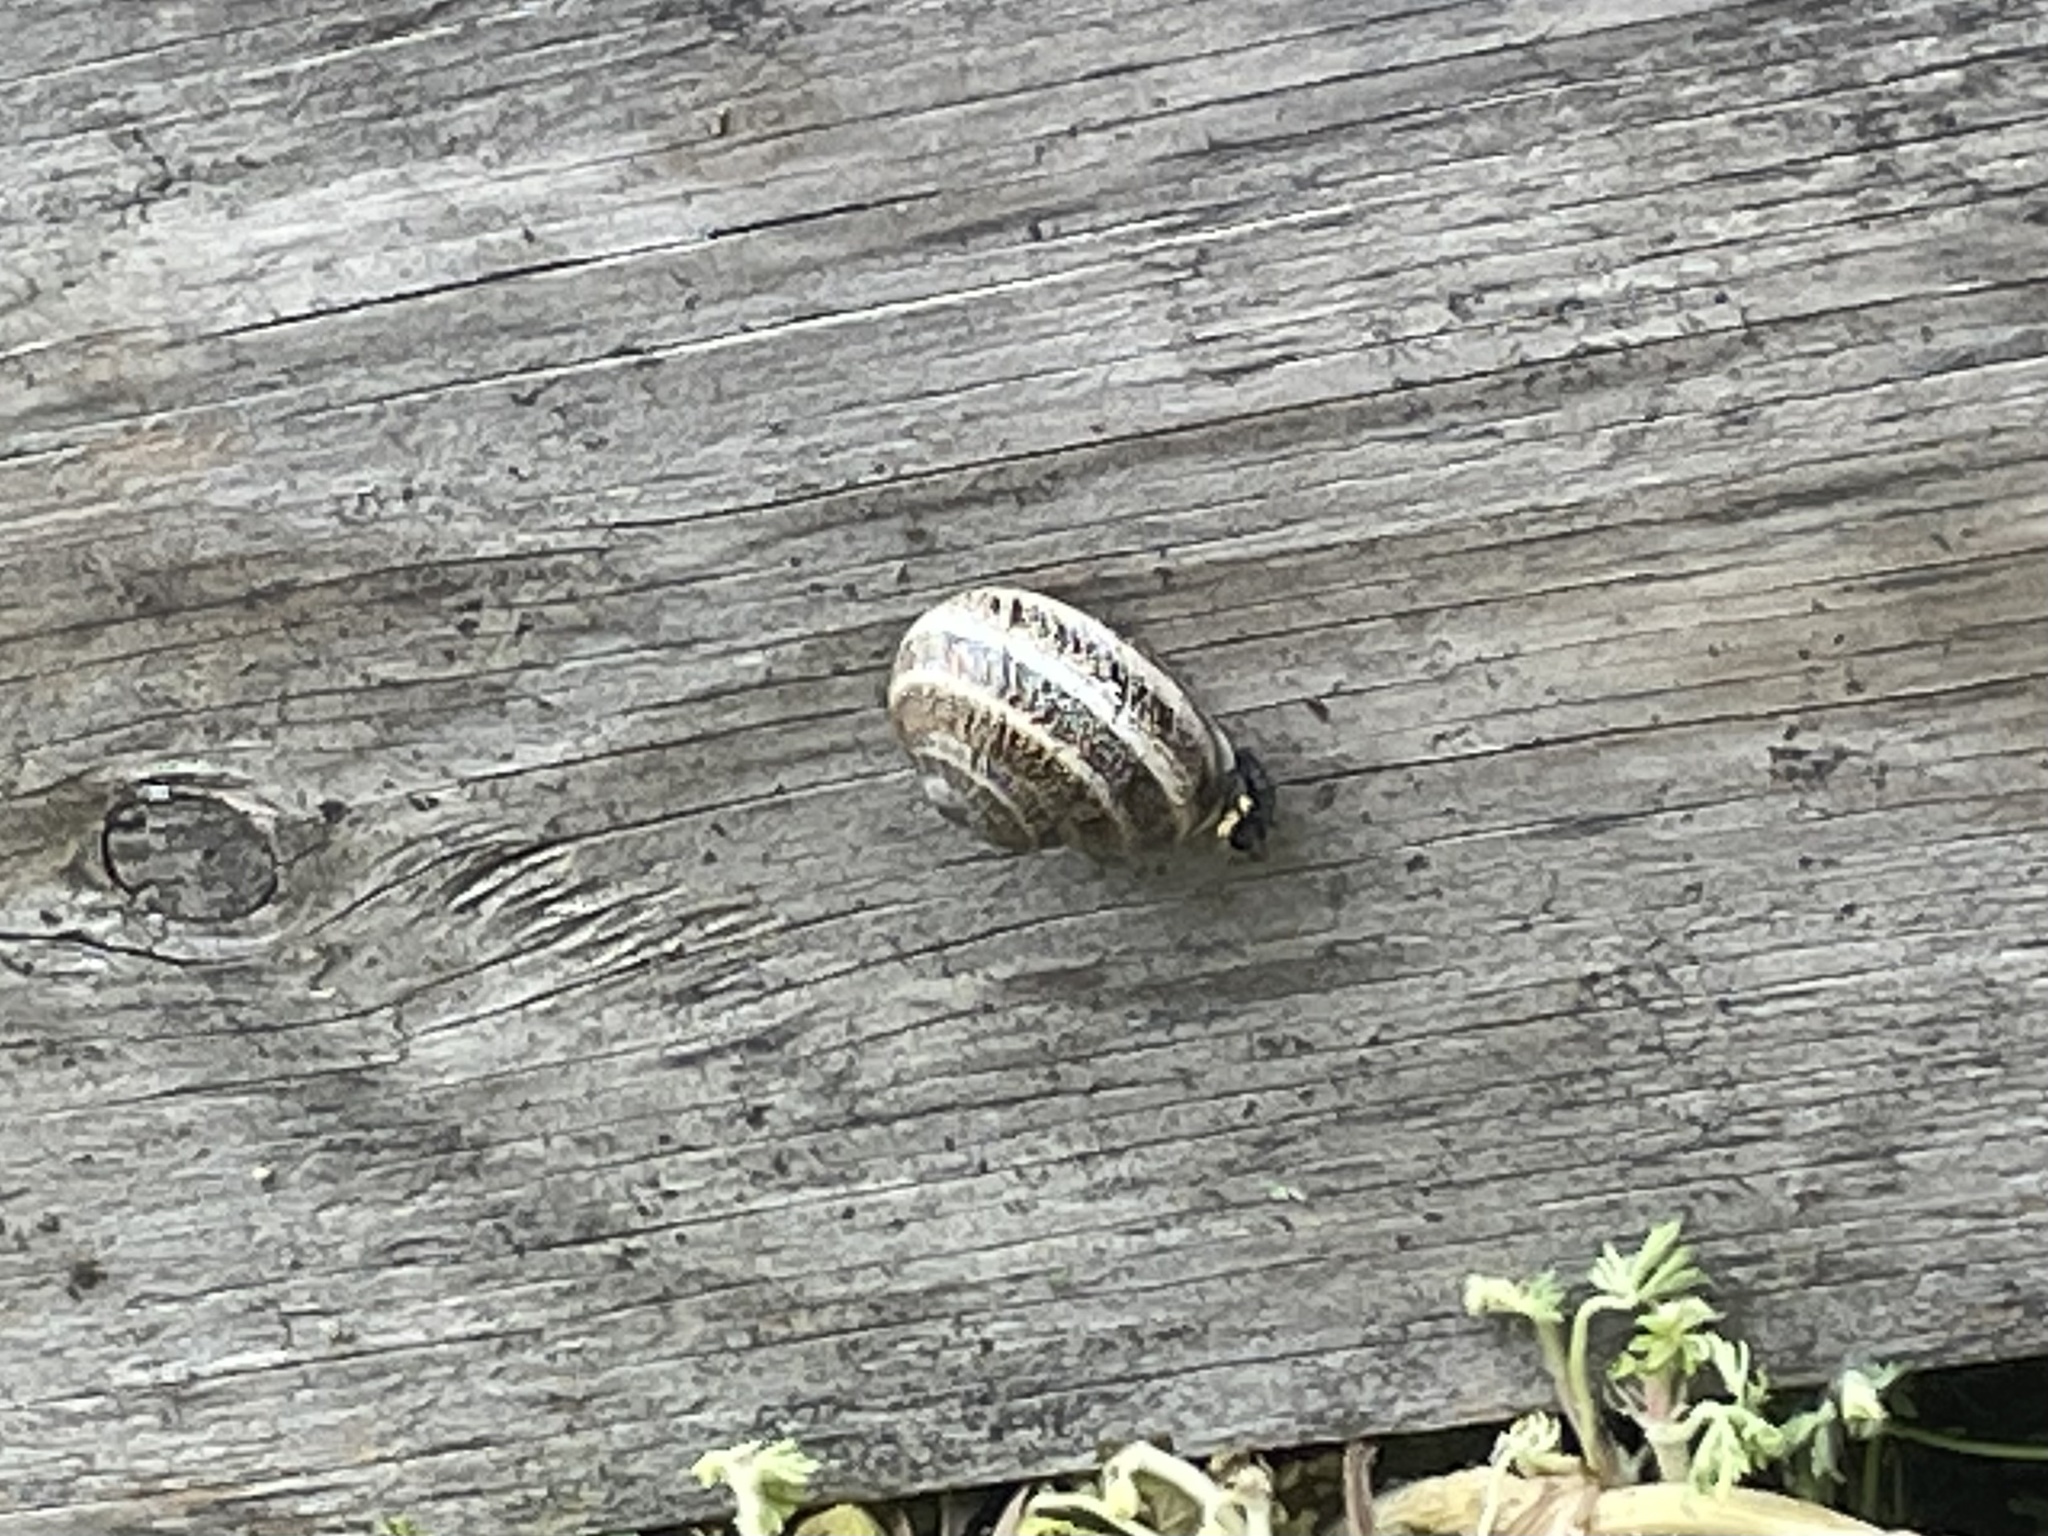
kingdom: Animalia
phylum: Mollusca
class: Gastropoda
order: Stylommatophora
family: Helicidae
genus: Otala
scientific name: Otala lactea
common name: Milk snail
